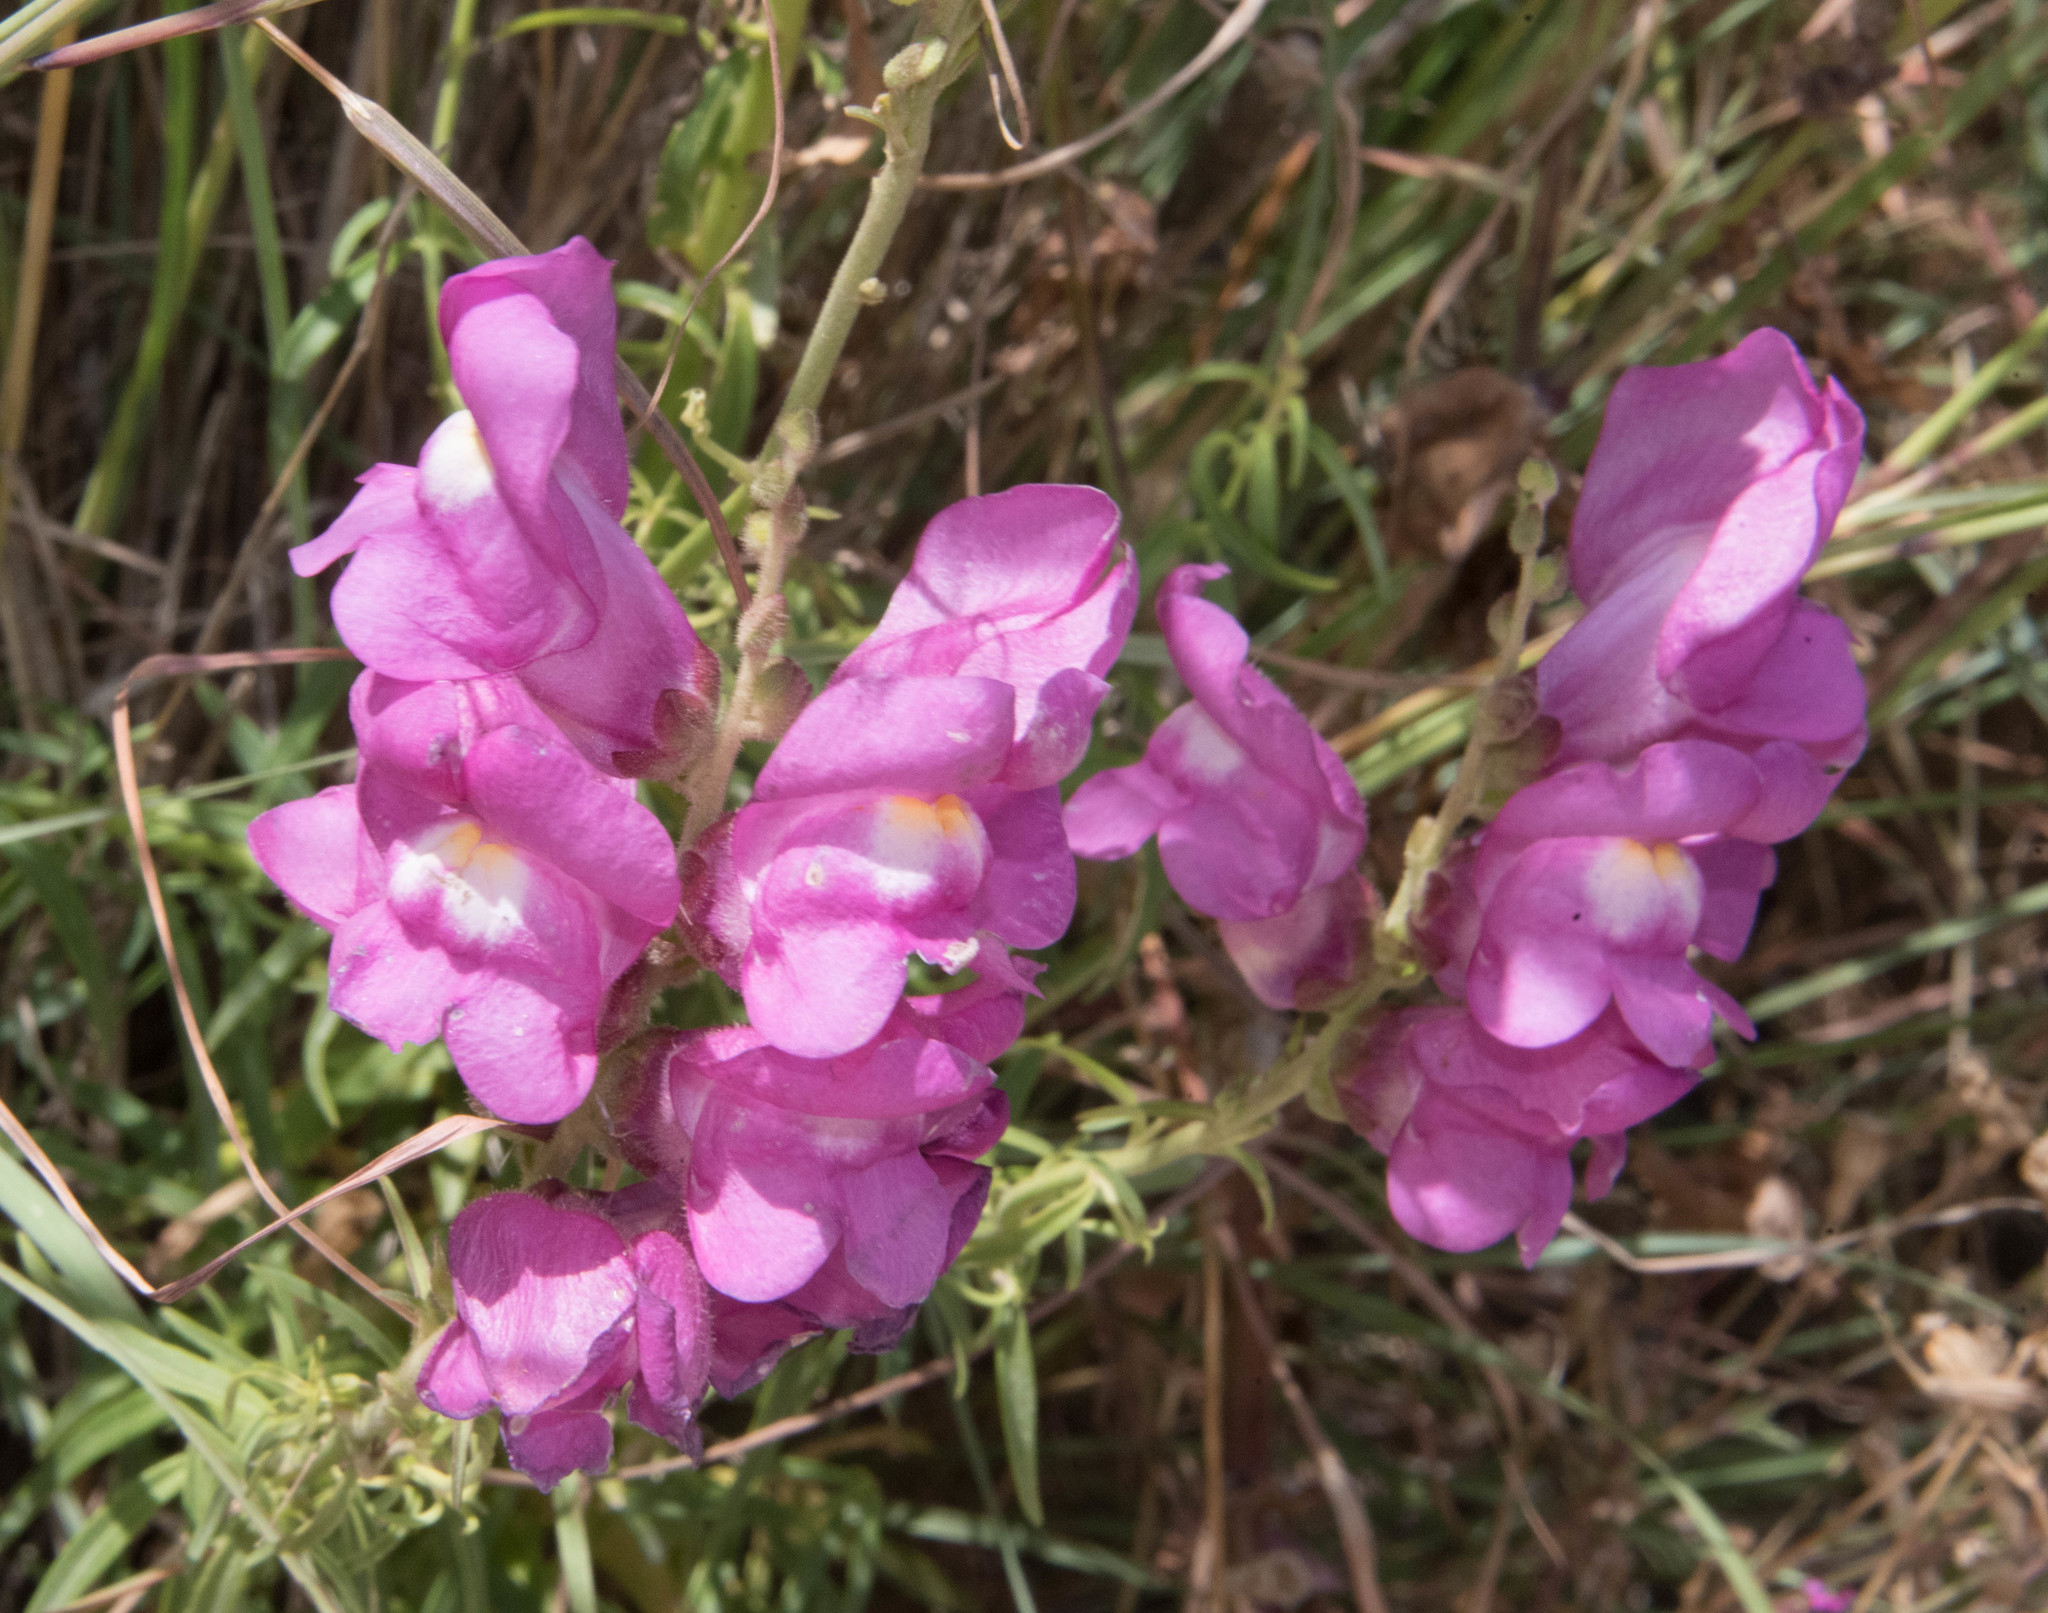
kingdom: Plantae
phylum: Tracheophyta
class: Magnoliopsida
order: Lamiales
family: Plantaginaceae
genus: Antirrhinum
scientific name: Antirrhinum tortuosum
